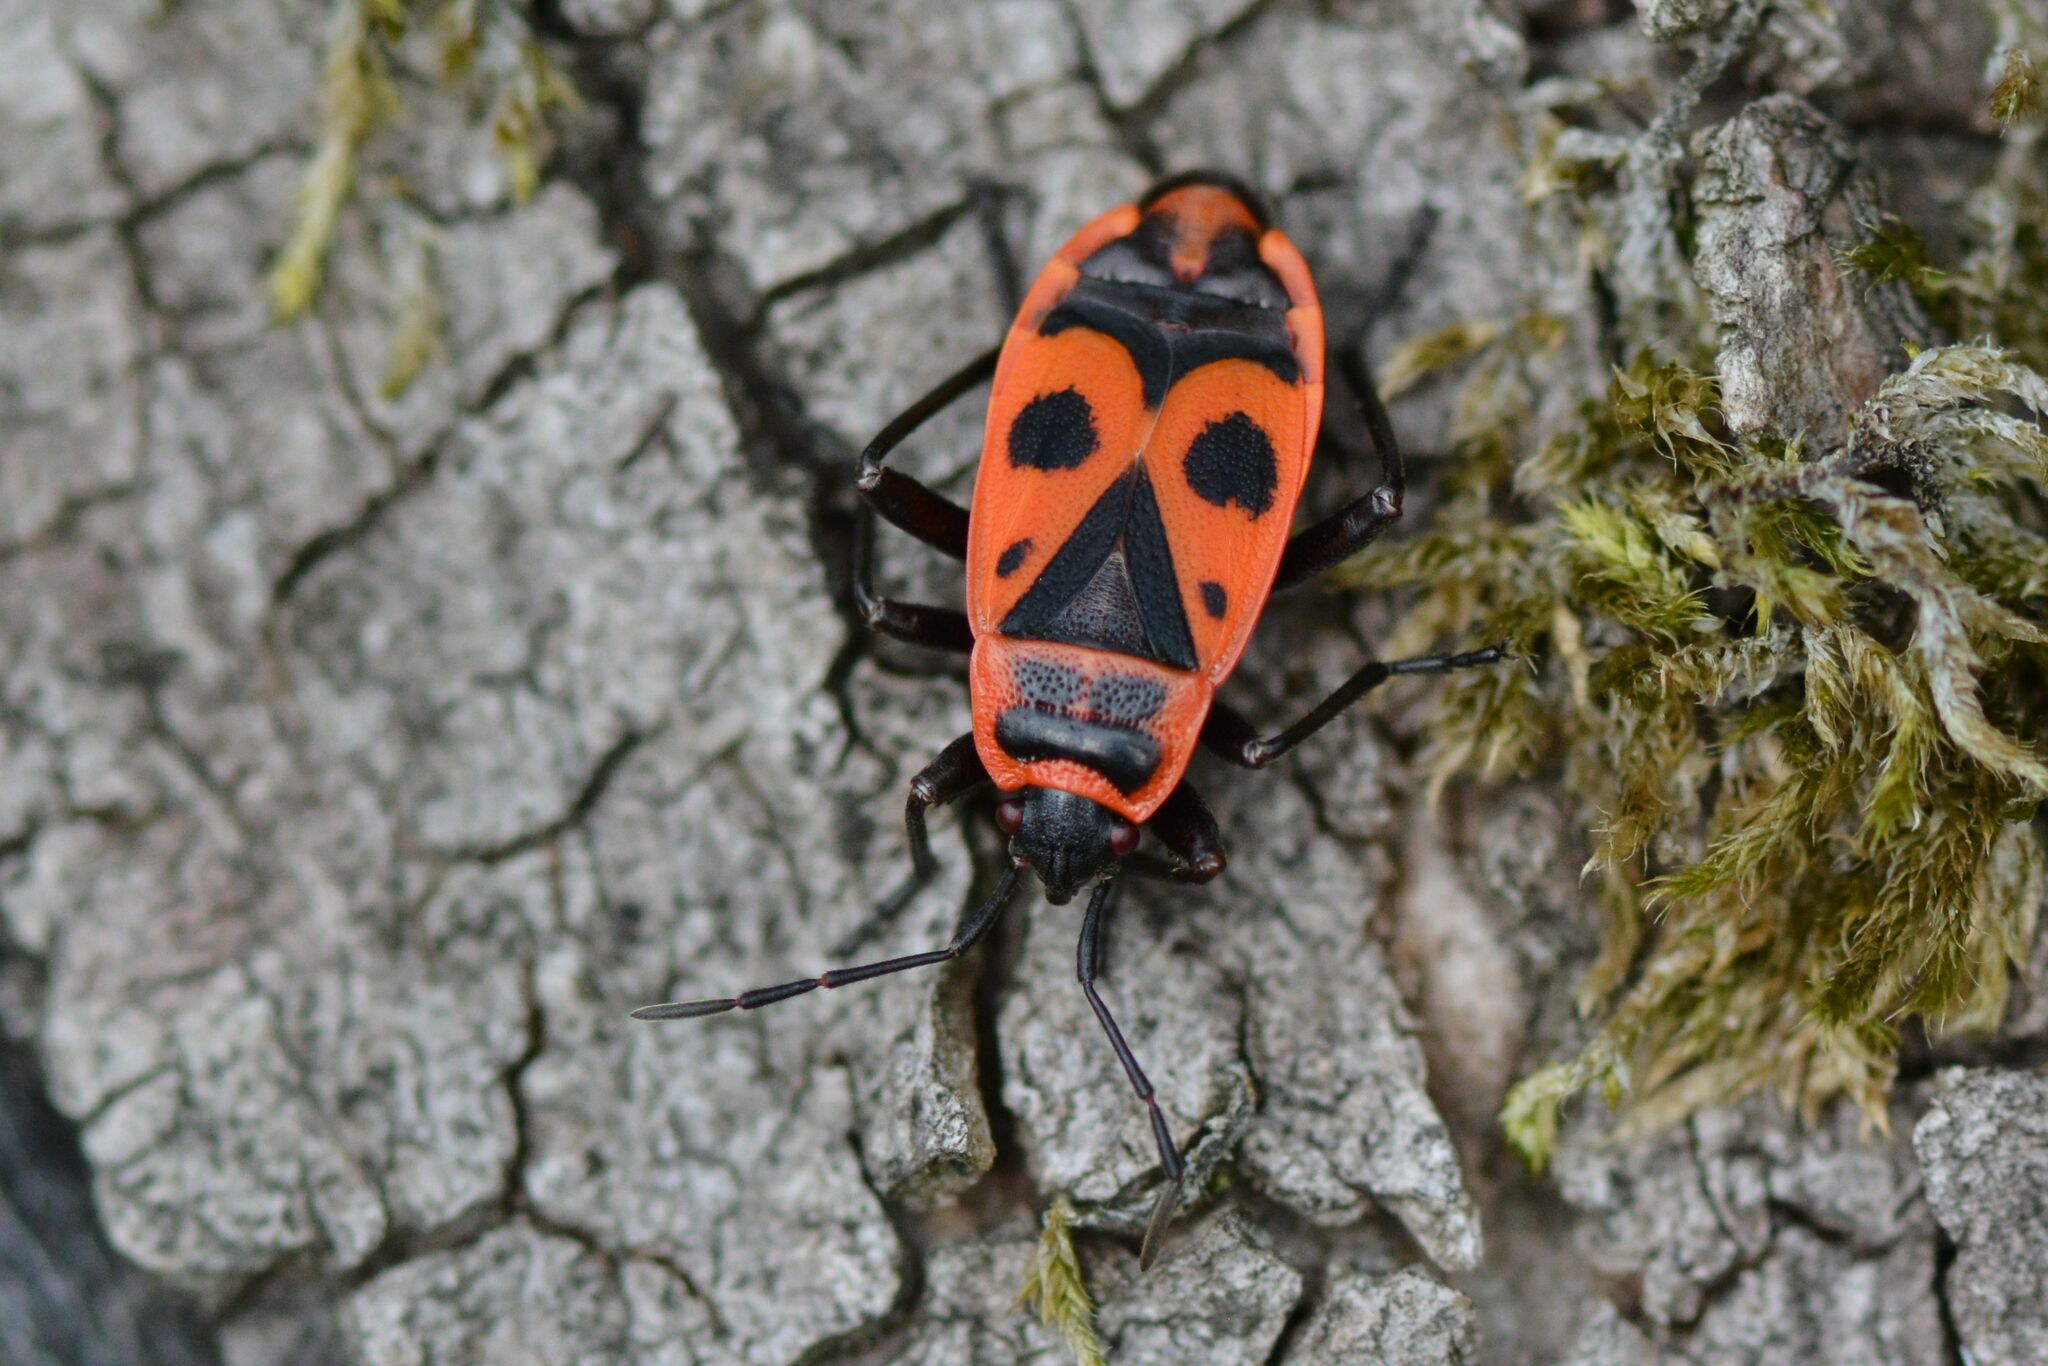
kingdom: Animalia
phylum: Arthropoda
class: Insecta
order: Hemiptera
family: Pyrrhocoridae
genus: Pyrrhocoris
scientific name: Pyrrhocoris apterus
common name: Firebug
